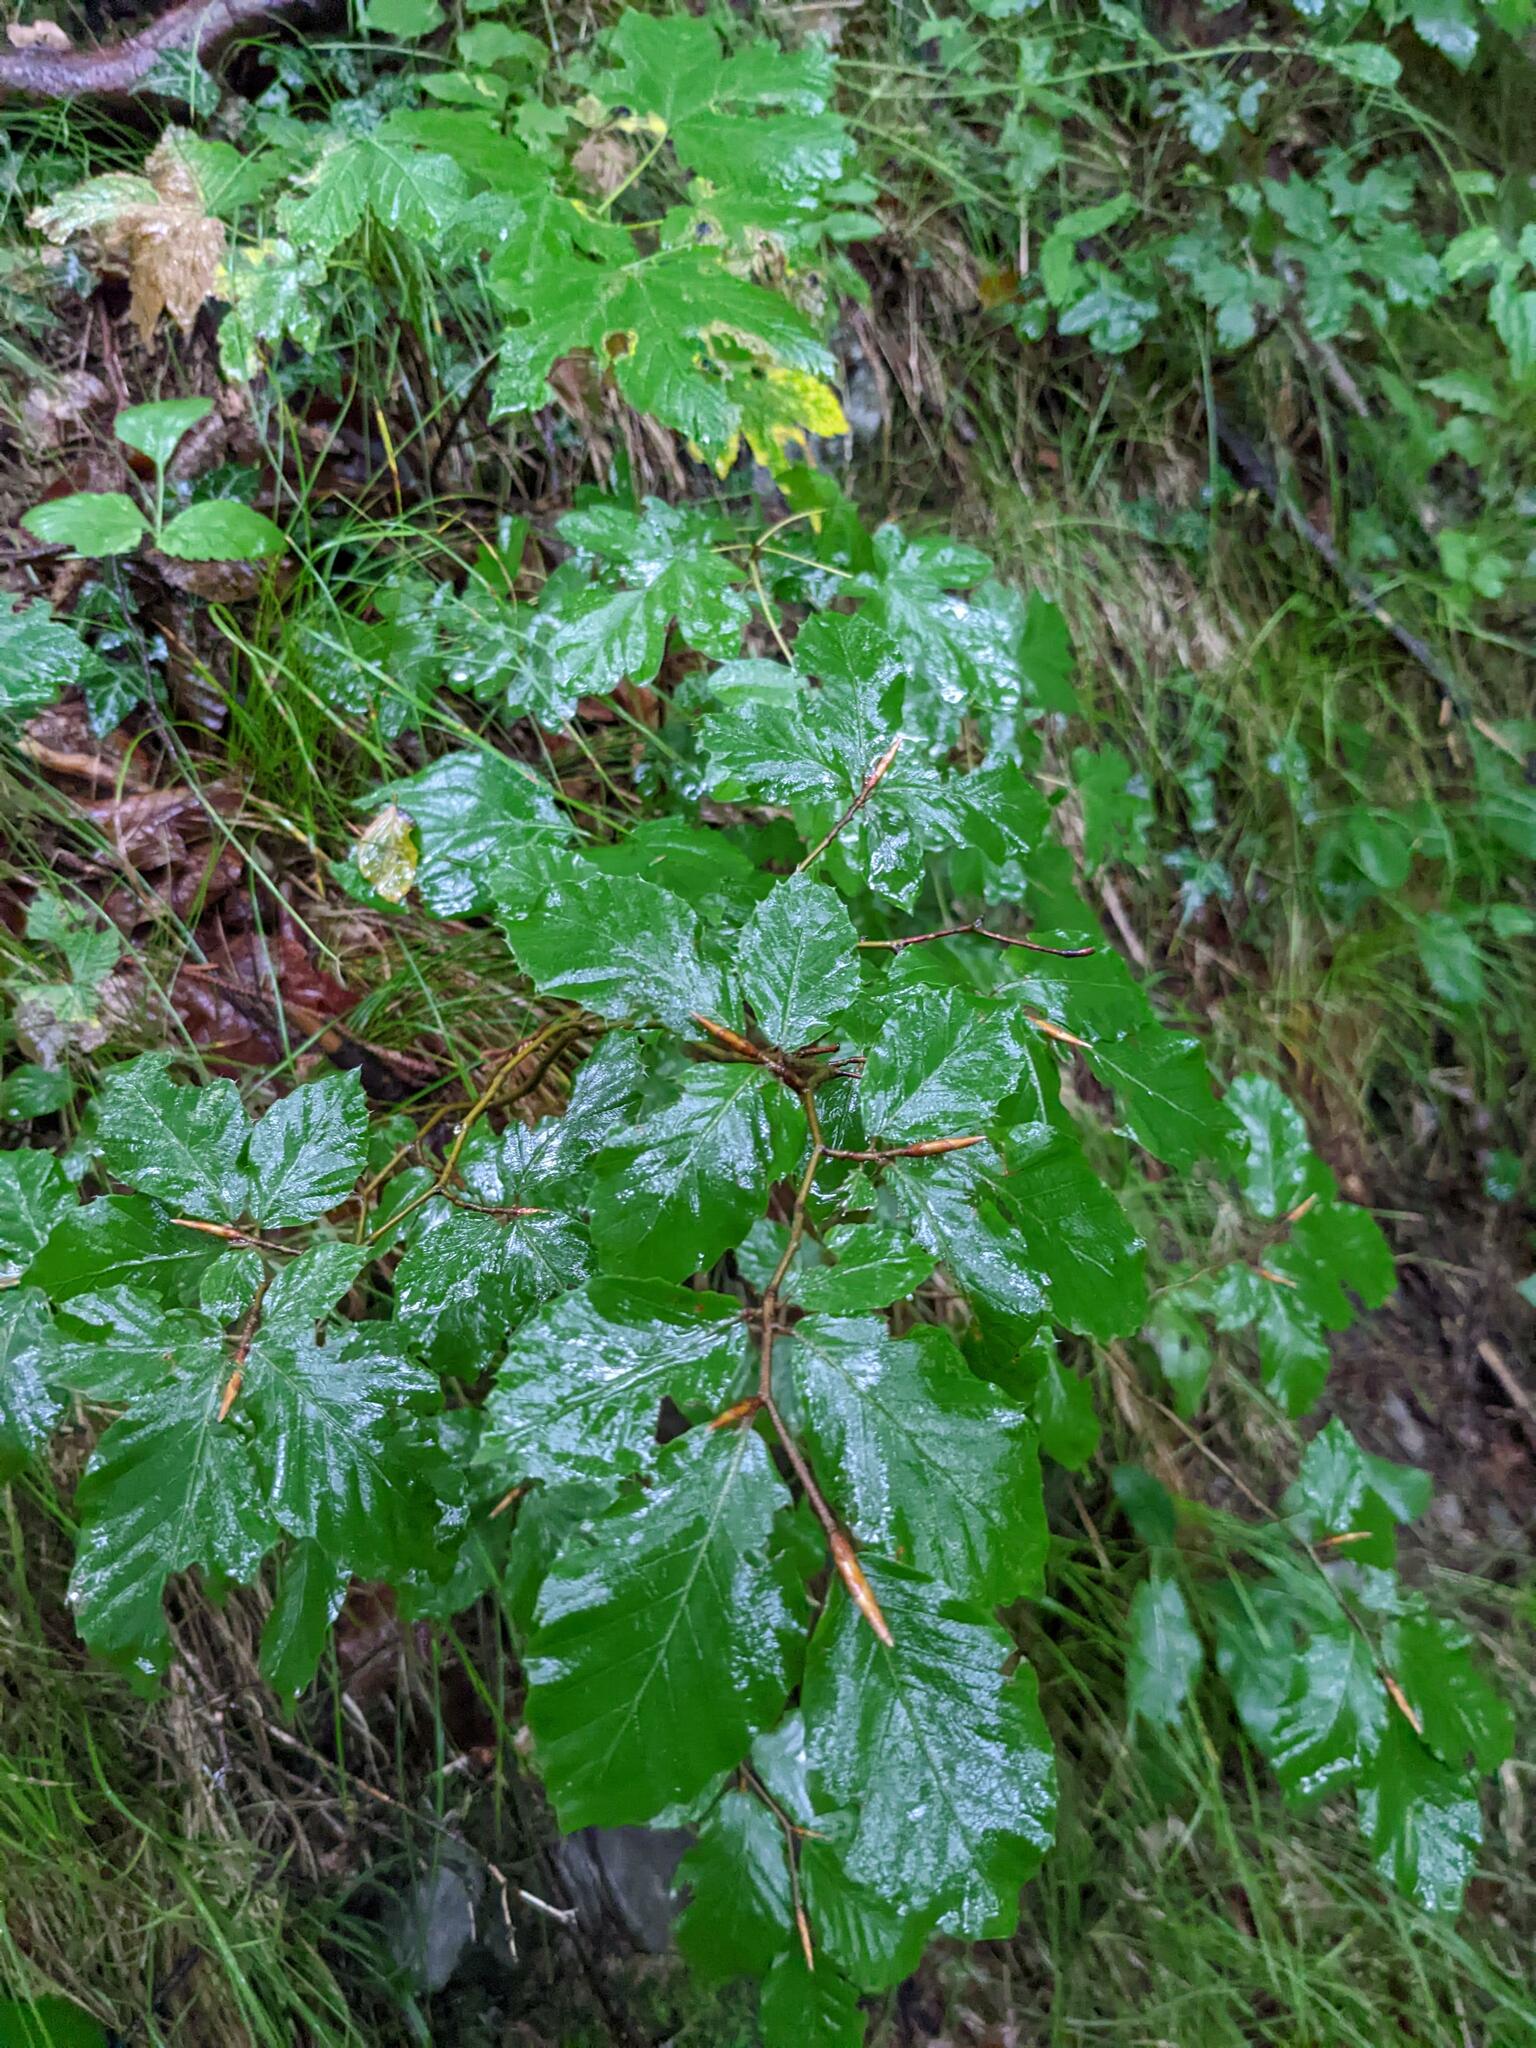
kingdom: Plantae
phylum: Tracheophyta
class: Magnoliopsida
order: Fagales
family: Fagaceae
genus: Fagus
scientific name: Fagus sylvatica
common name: Beech
